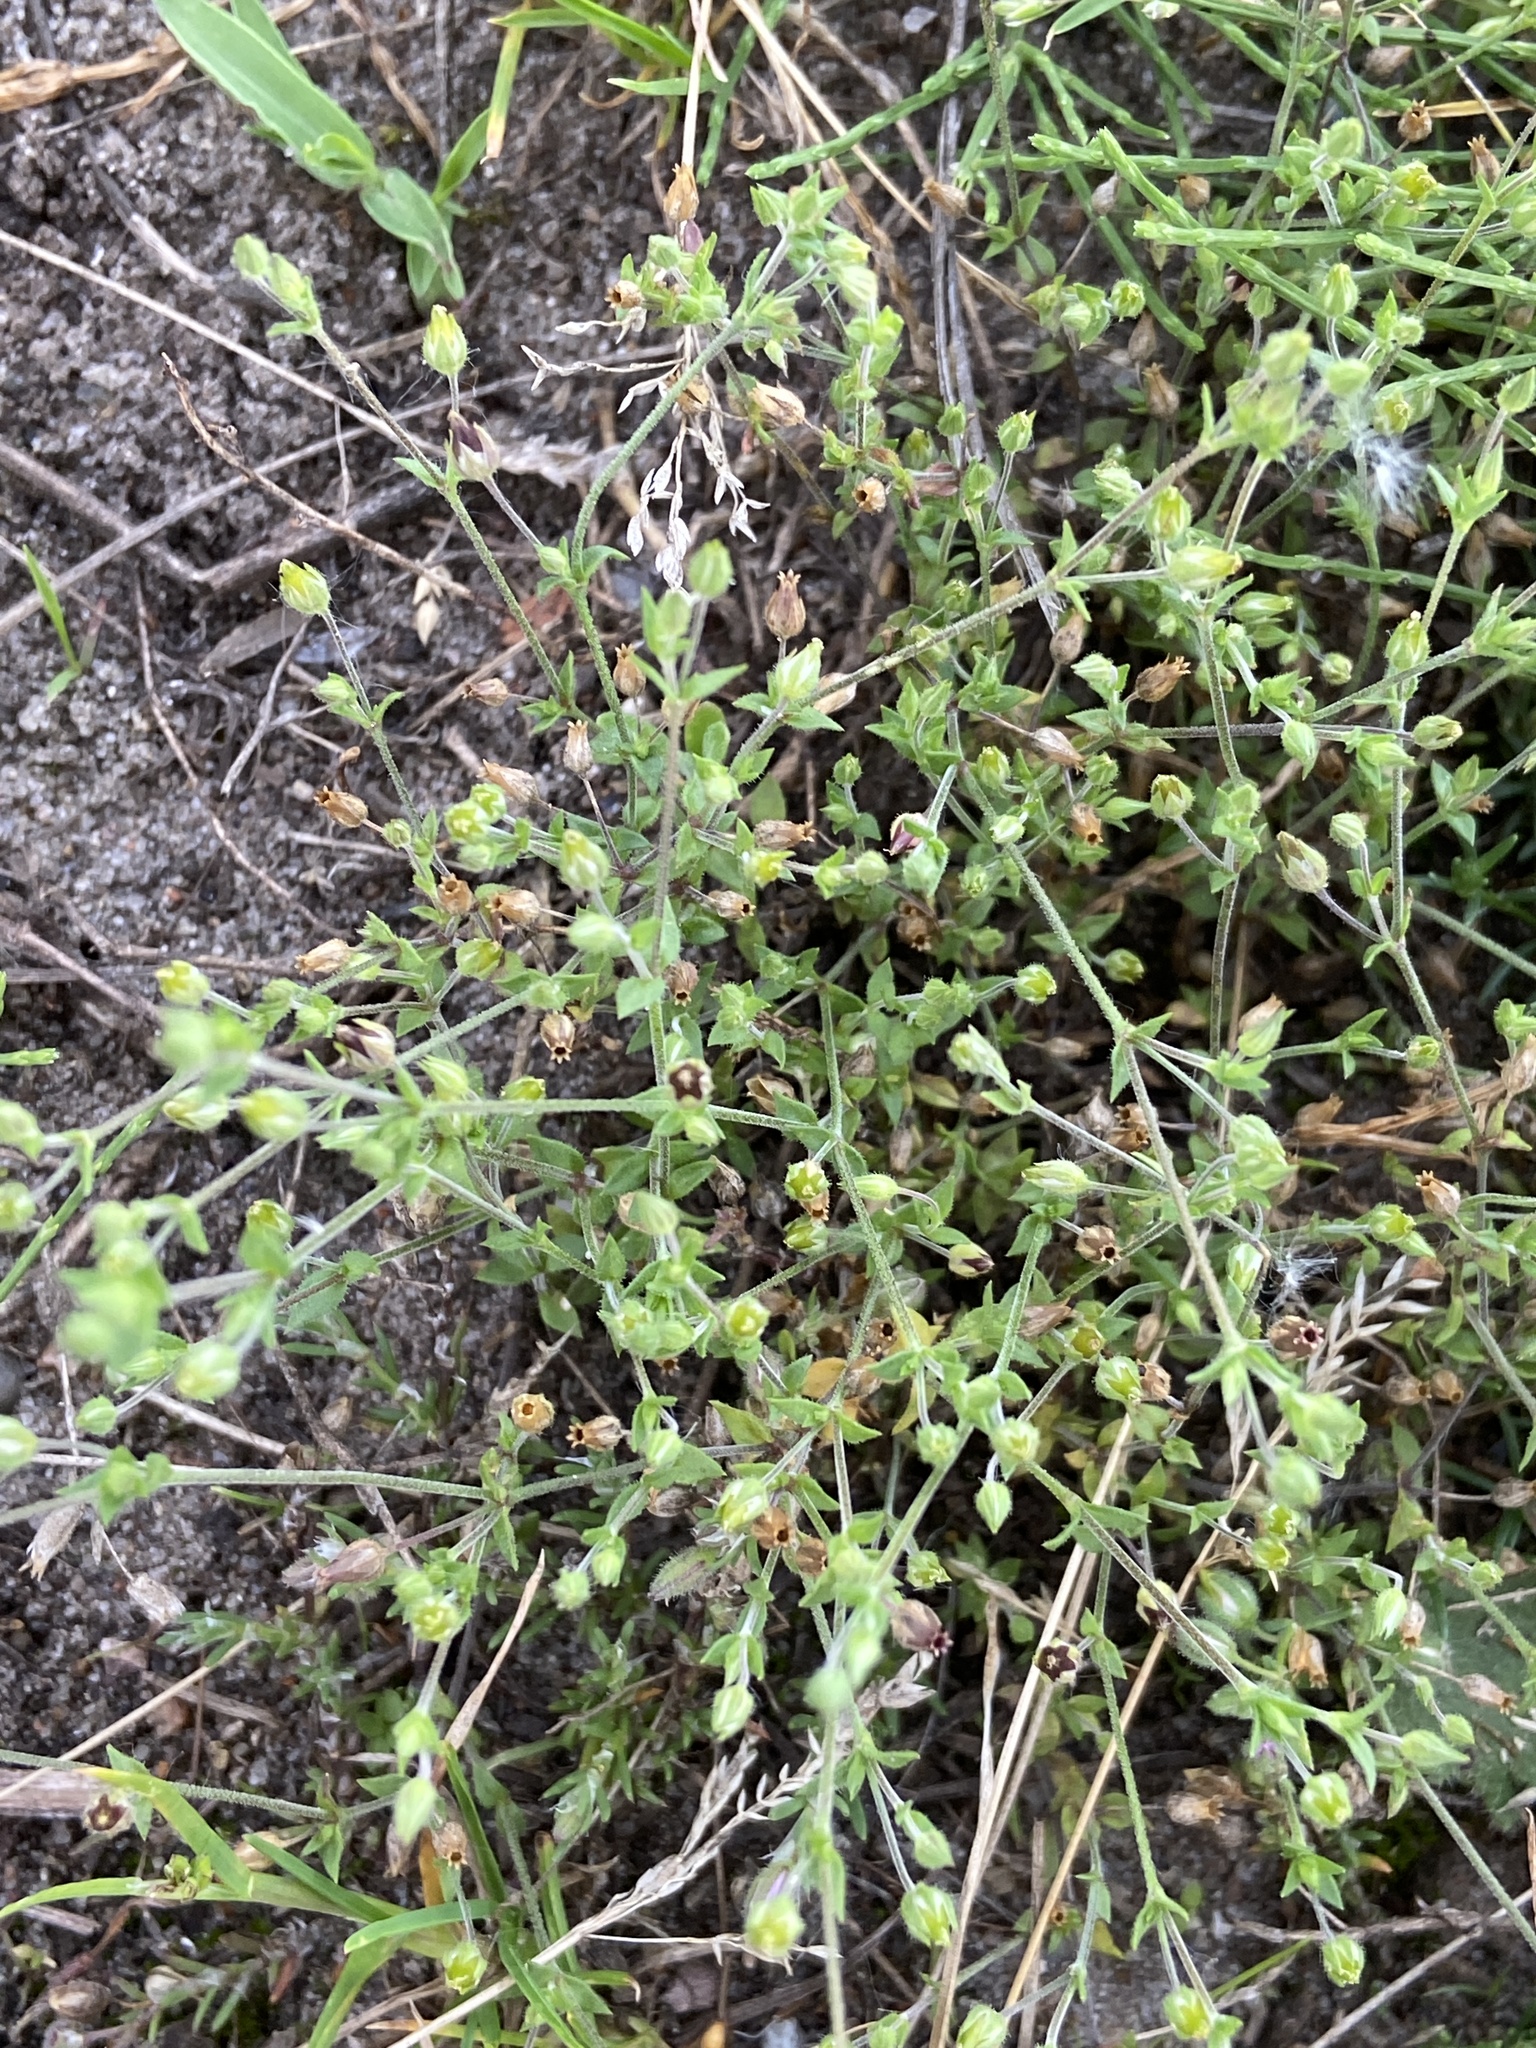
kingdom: Plantae
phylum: Tracheophyta
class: Magnoliopsida
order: Caryophyllales
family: Caryophyllaceae
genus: Arenaria
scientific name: Arenaria serpyllifolia
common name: Thyme-leaved sandwort
